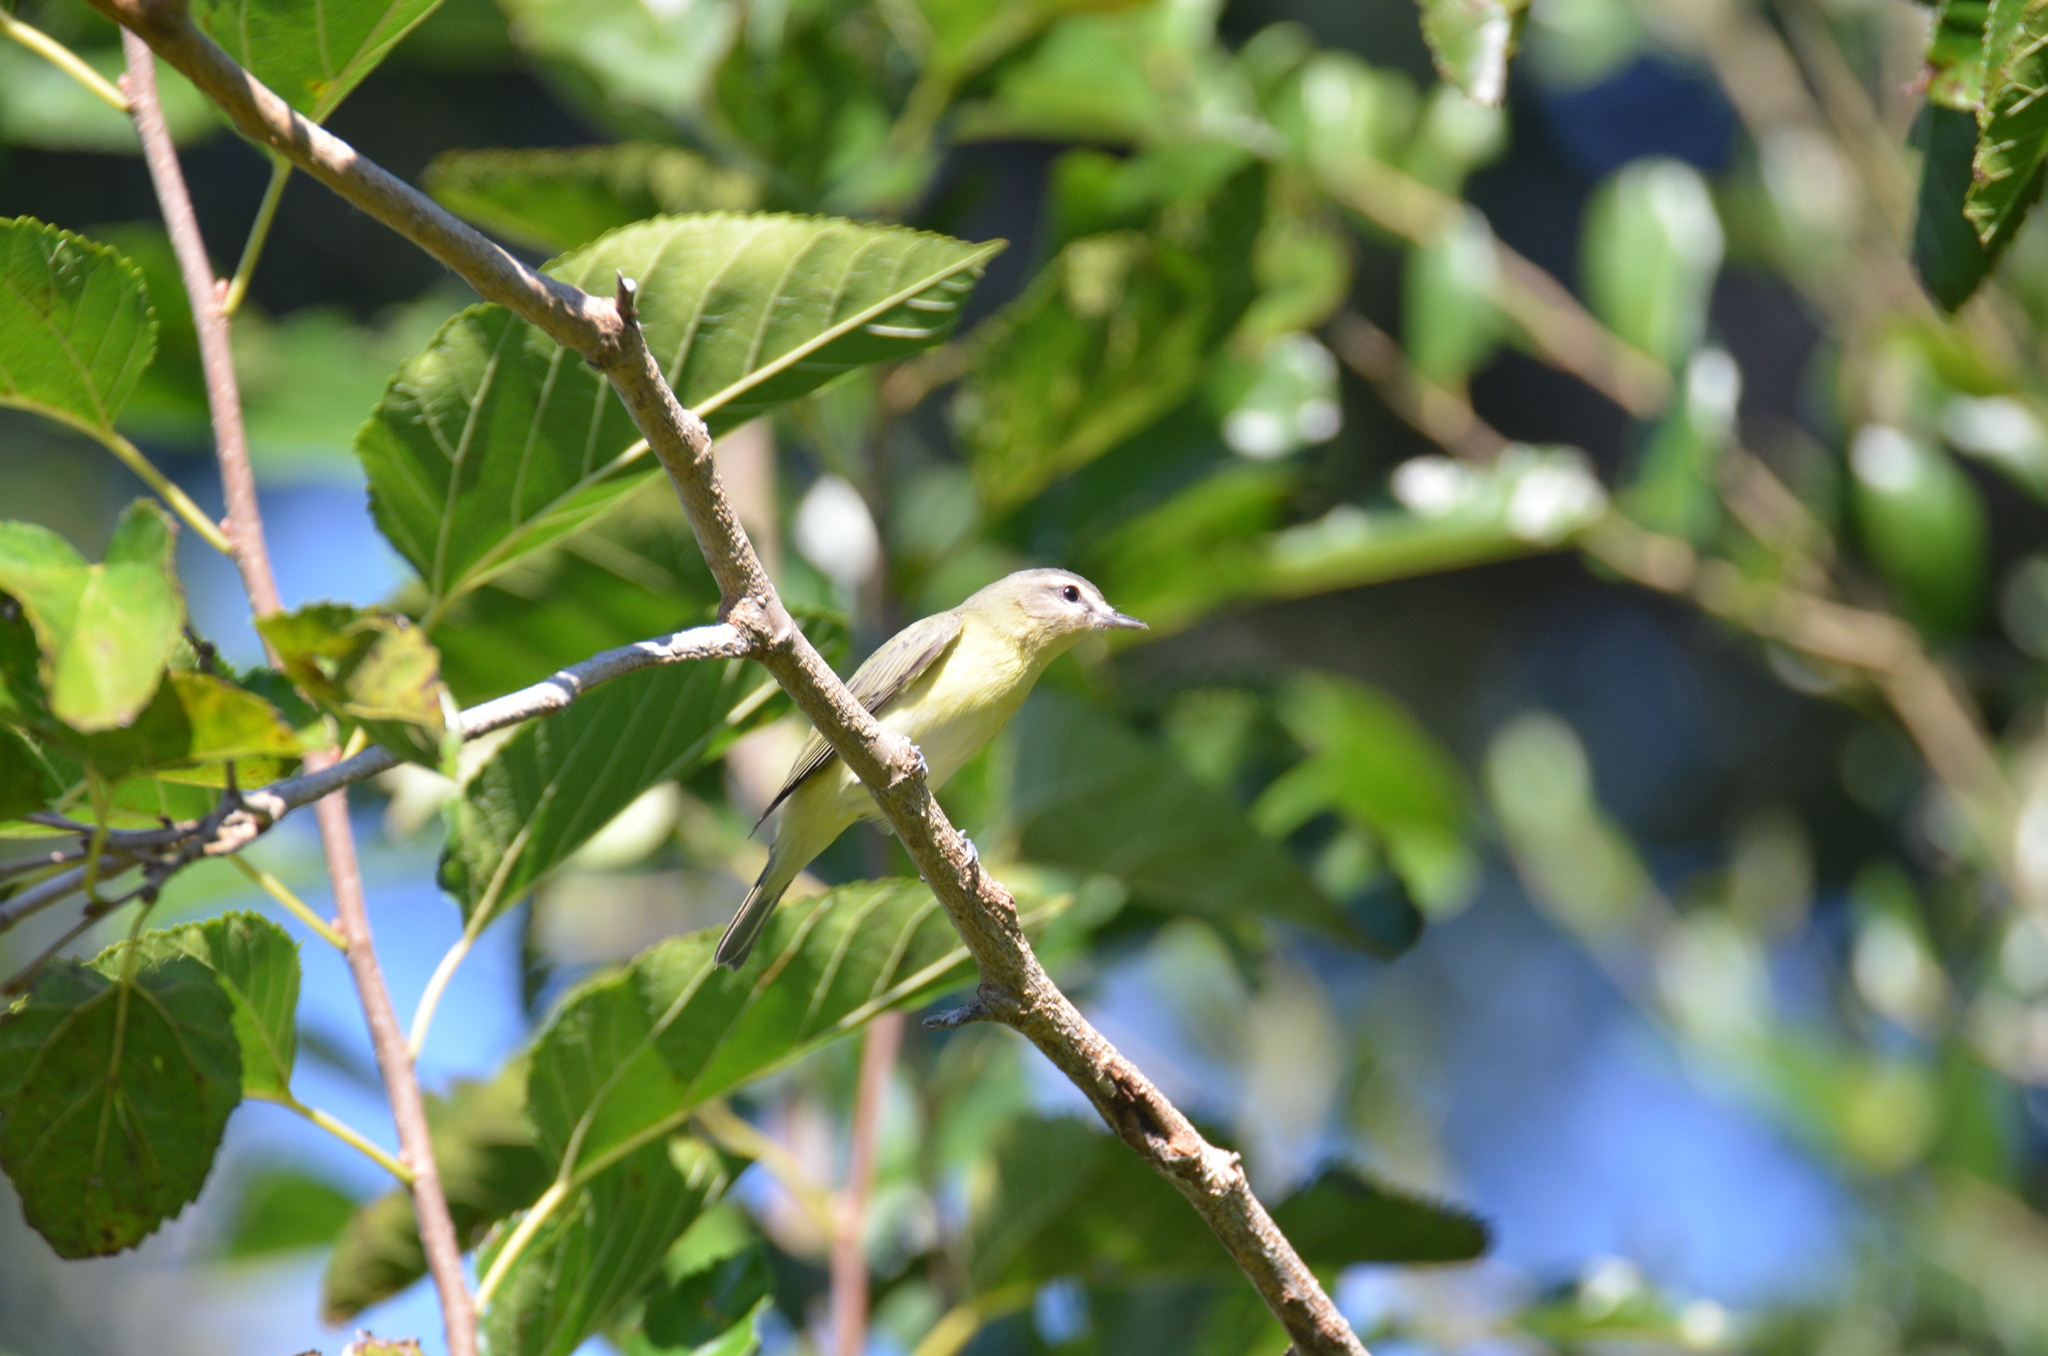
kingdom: Animalia
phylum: Chordata
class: Aves
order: Passeriformes
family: Vireonidae
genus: Vireo
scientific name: Vireo philadelphicus
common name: Philadelphia vireo
